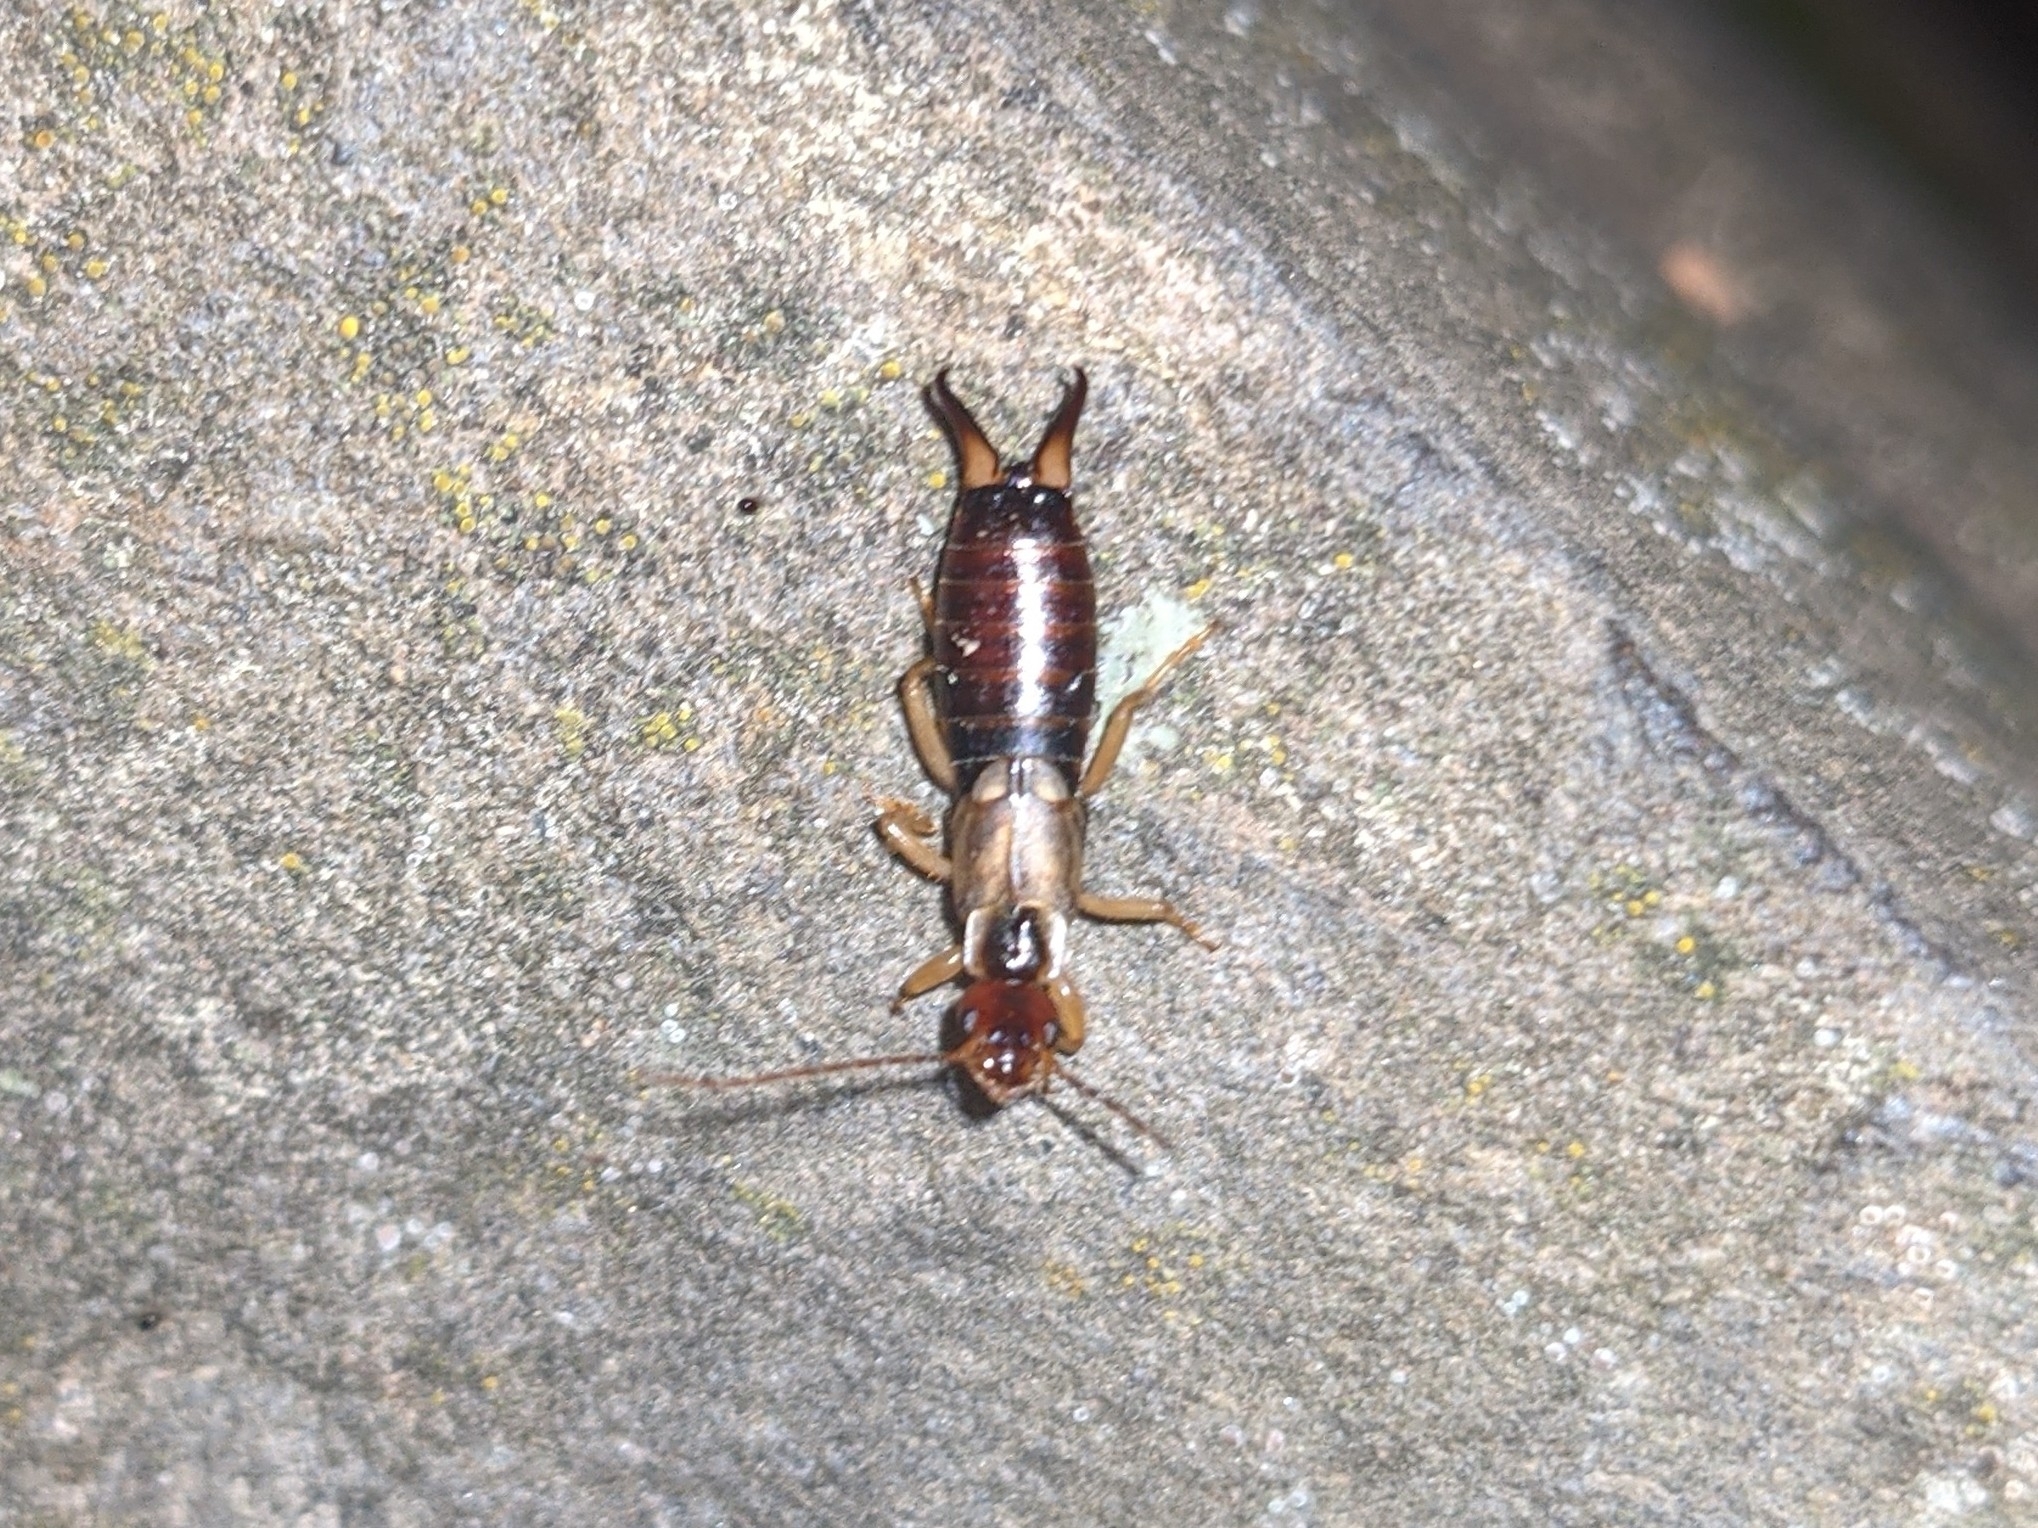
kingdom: Animalia
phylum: Arthropoda
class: Insecta
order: Dermaptera
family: Forficulidae
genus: Forficula
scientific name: Forficula
